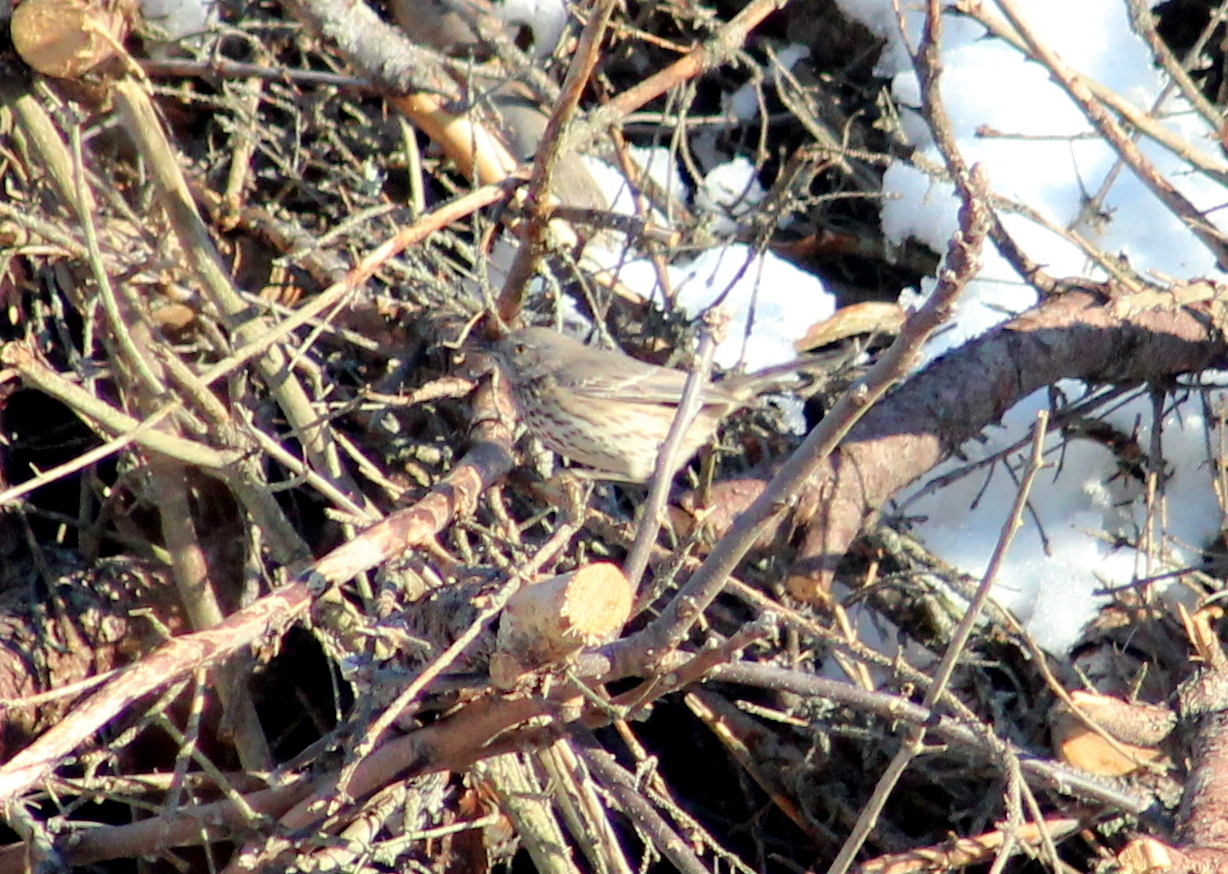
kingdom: Animalia
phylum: Chordata
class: Aves
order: Passeriformes
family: Mimidae
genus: Oreoscoptes
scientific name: Oreoscoptes montanus
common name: Sage thrasher
